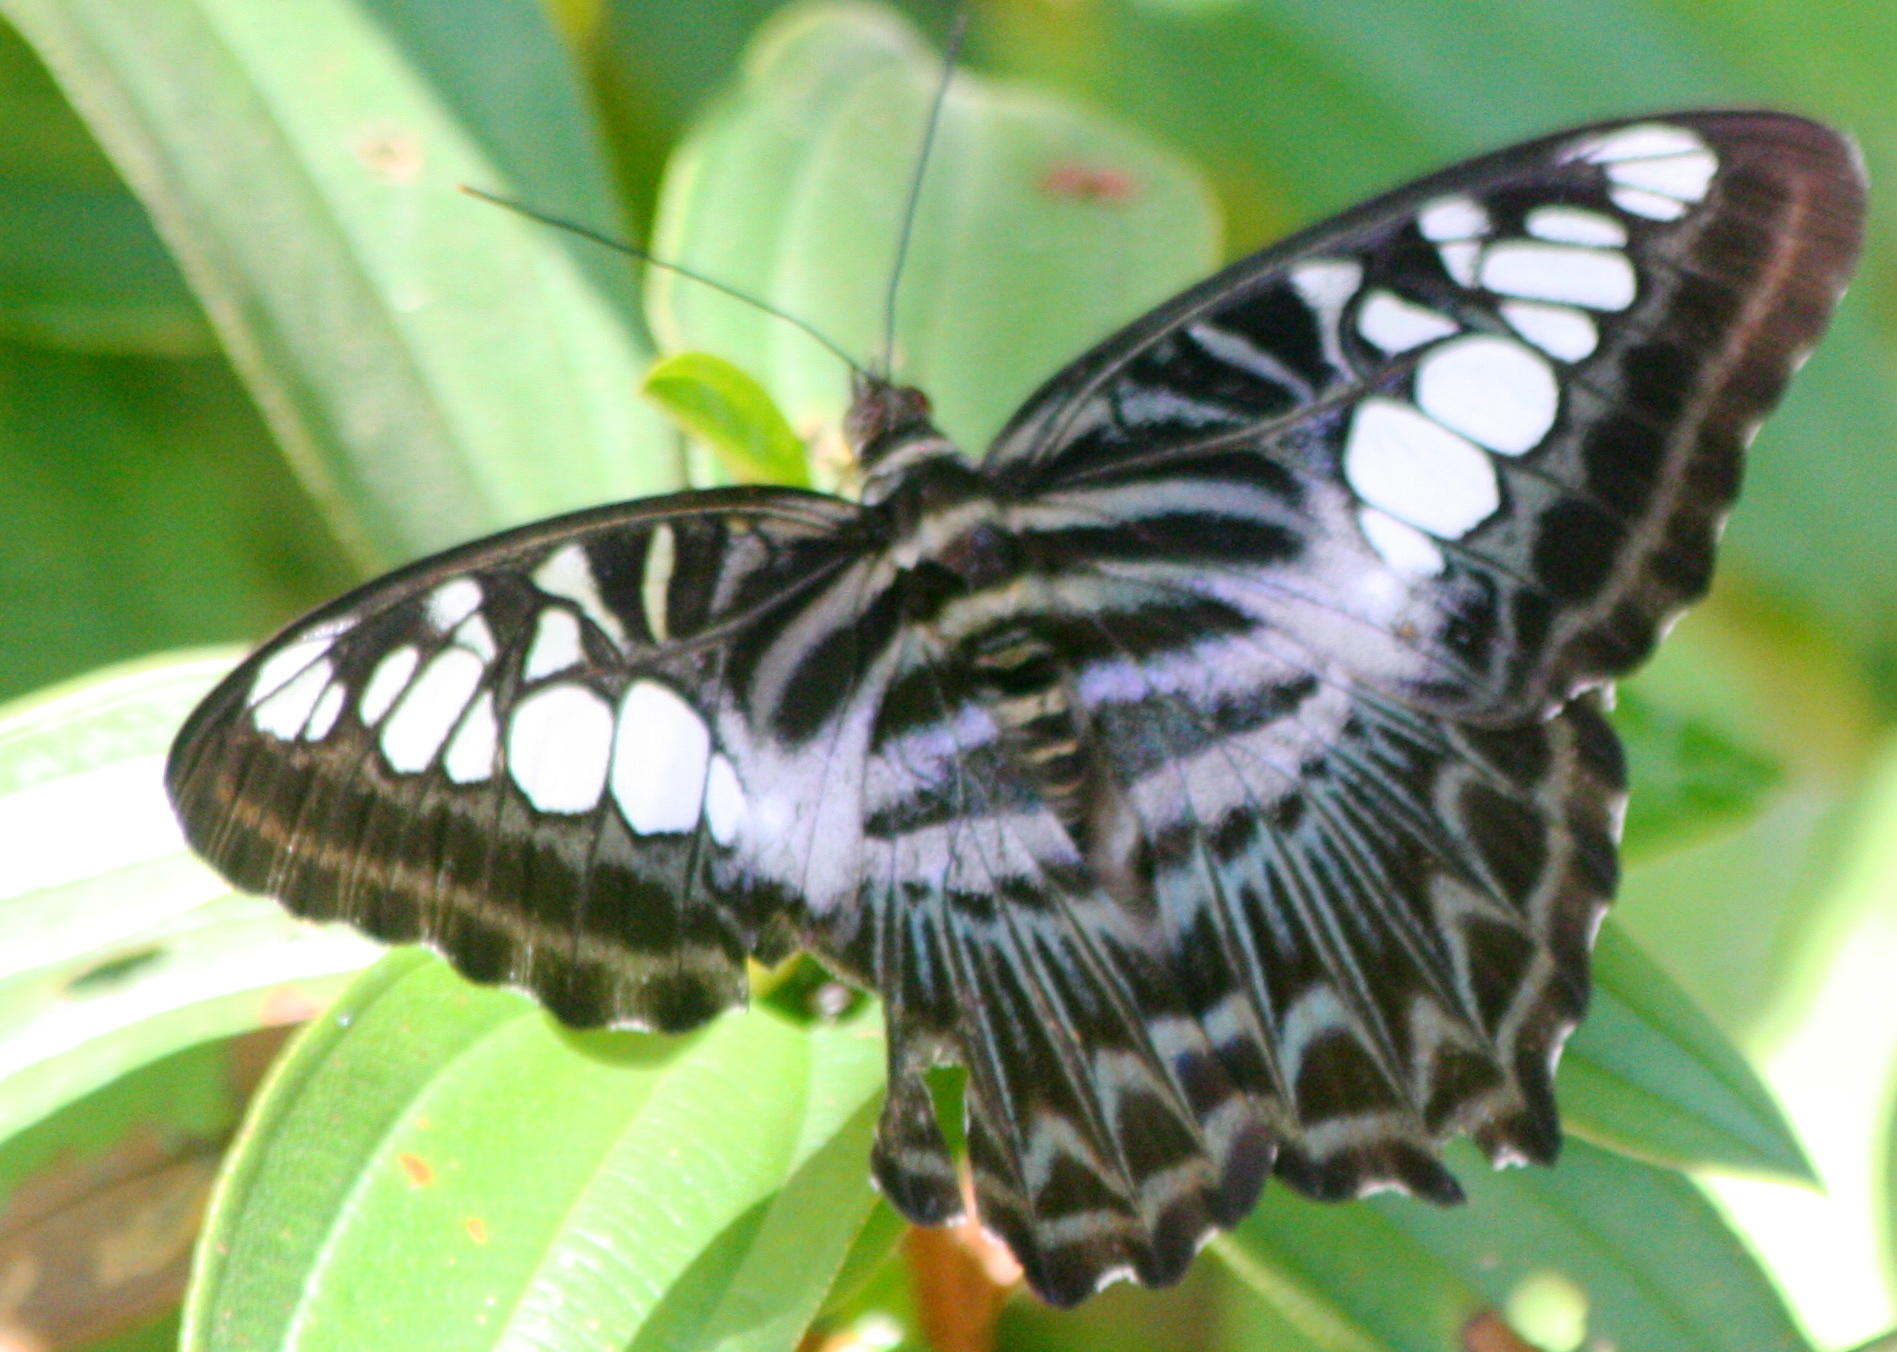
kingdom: Animalia
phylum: Arthropoda
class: Insecta
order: Lepidoptera
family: Nymphalidae
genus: Kallima
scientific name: Kallima sylvia
